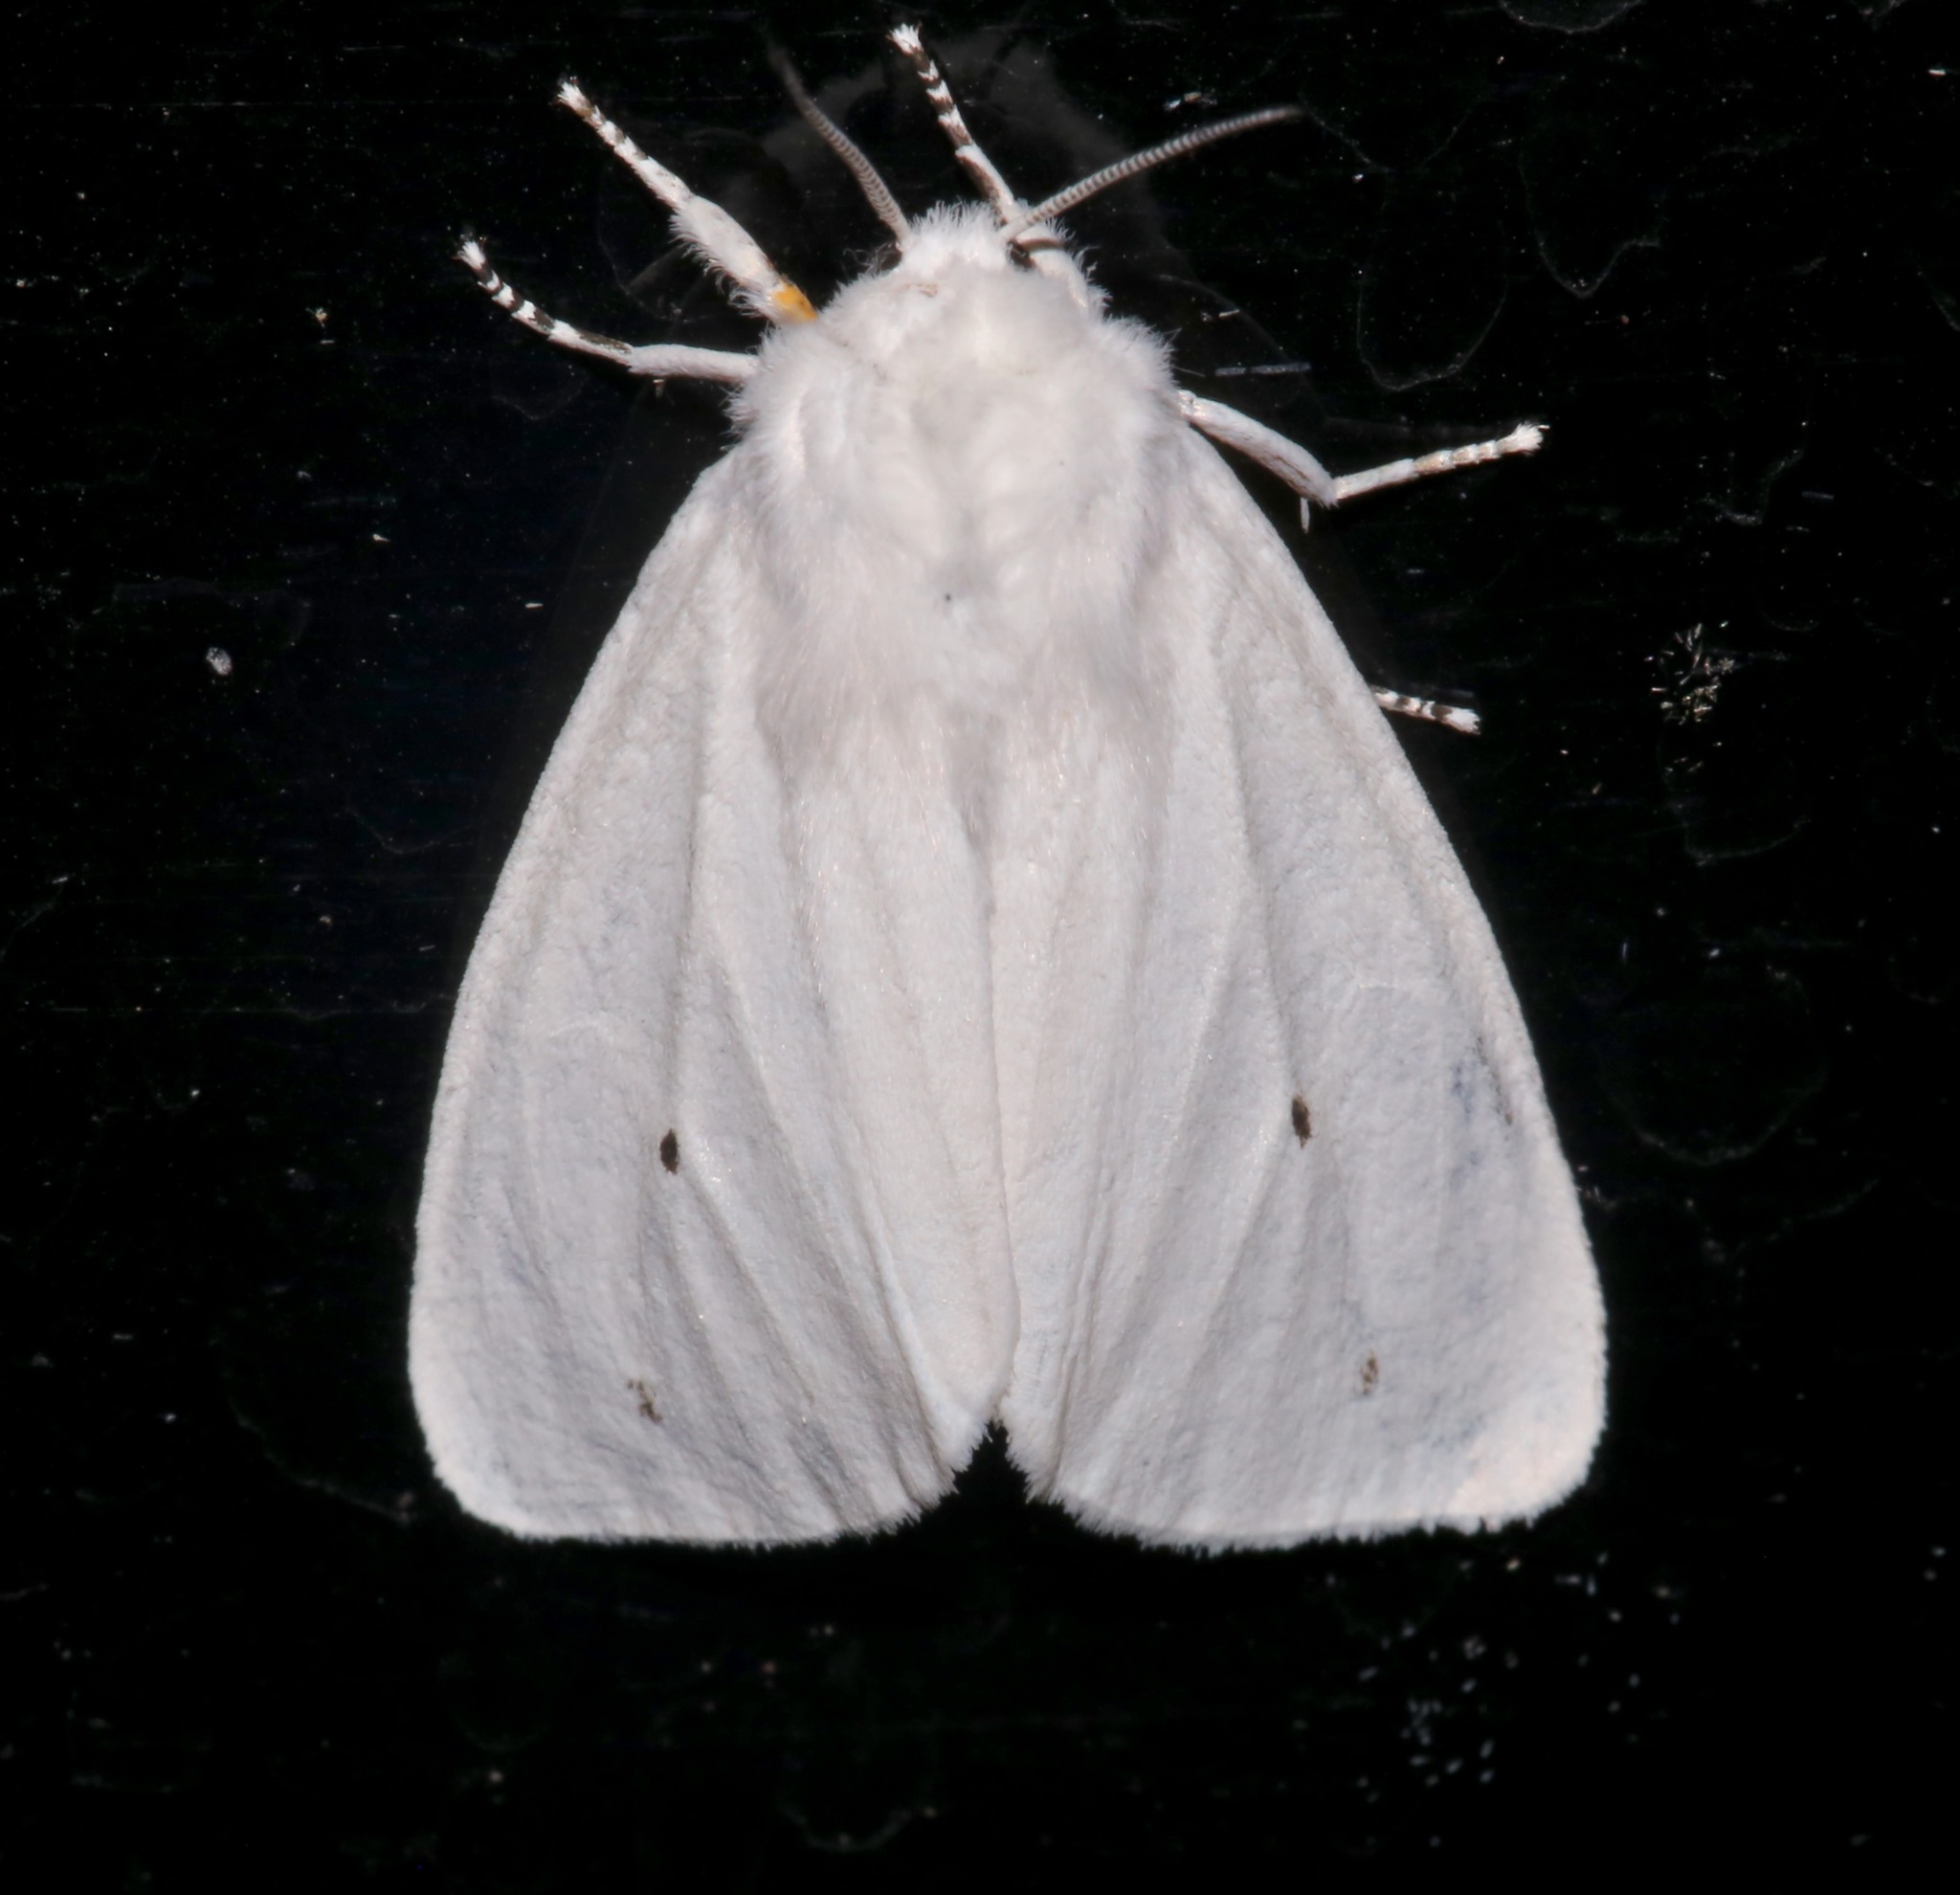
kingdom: Animalia
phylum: Arthropoda
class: Insecta
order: Lepidoptera
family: Erebidae
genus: Spilosoma
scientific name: Spilosoma virginica
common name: Virginia tiger moth
